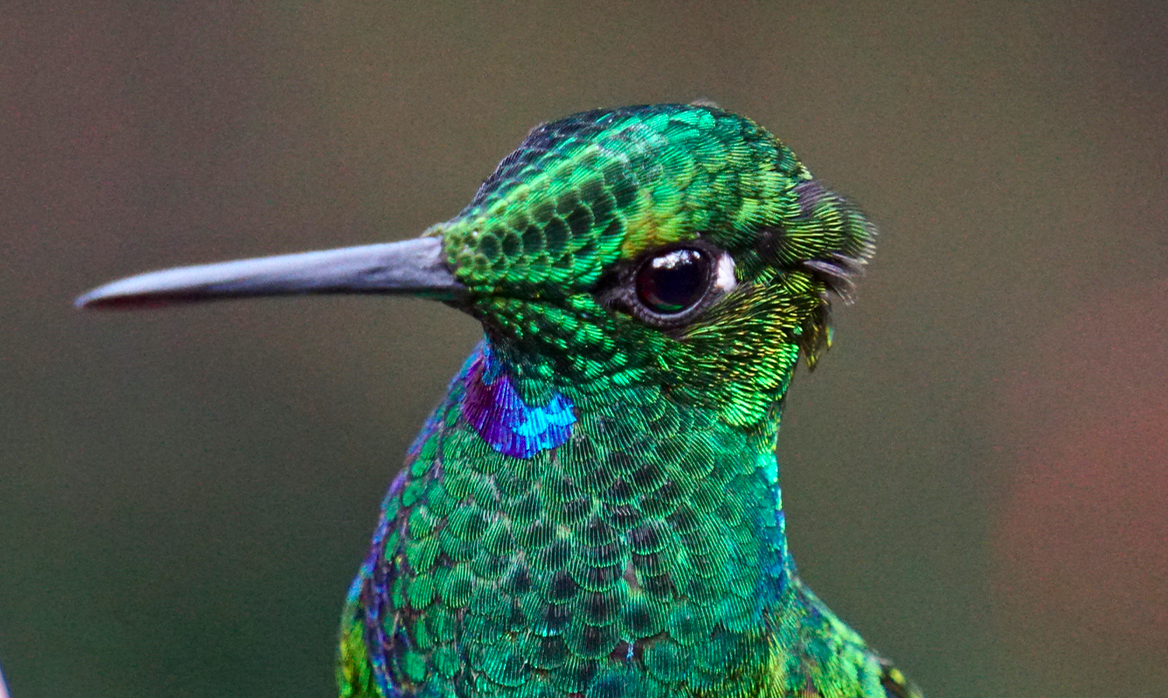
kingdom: Animalia
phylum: Chordata
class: Aves
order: Apodiformes
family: Trochilidae
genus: Heliodoxa
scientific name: Heliodoxa jacula
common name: Green-crowned brilliant
